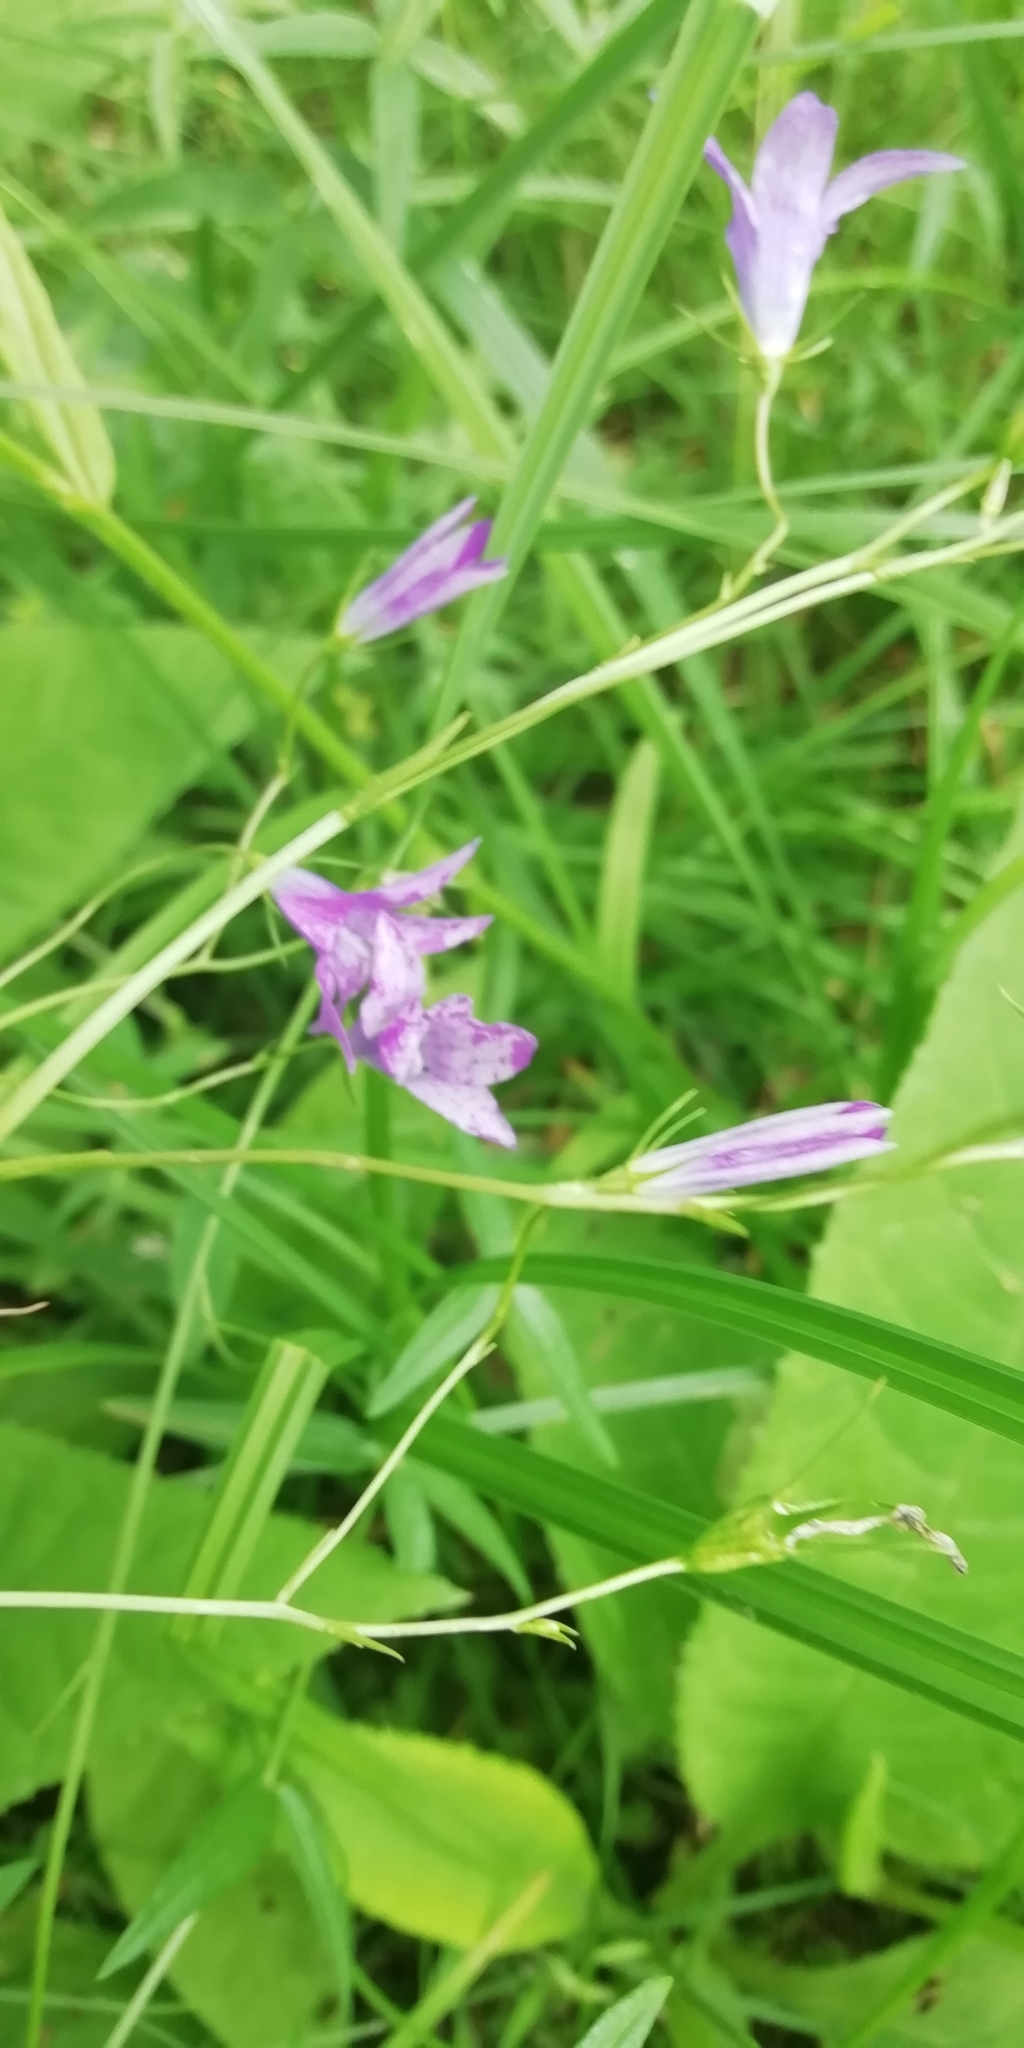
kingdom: Plantae
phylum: Tracheophyta
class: Magnoliopsida
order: Asterales
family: Campanulaceae
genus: Campanula
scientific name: Campanula patula
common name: Spreading bellflower
